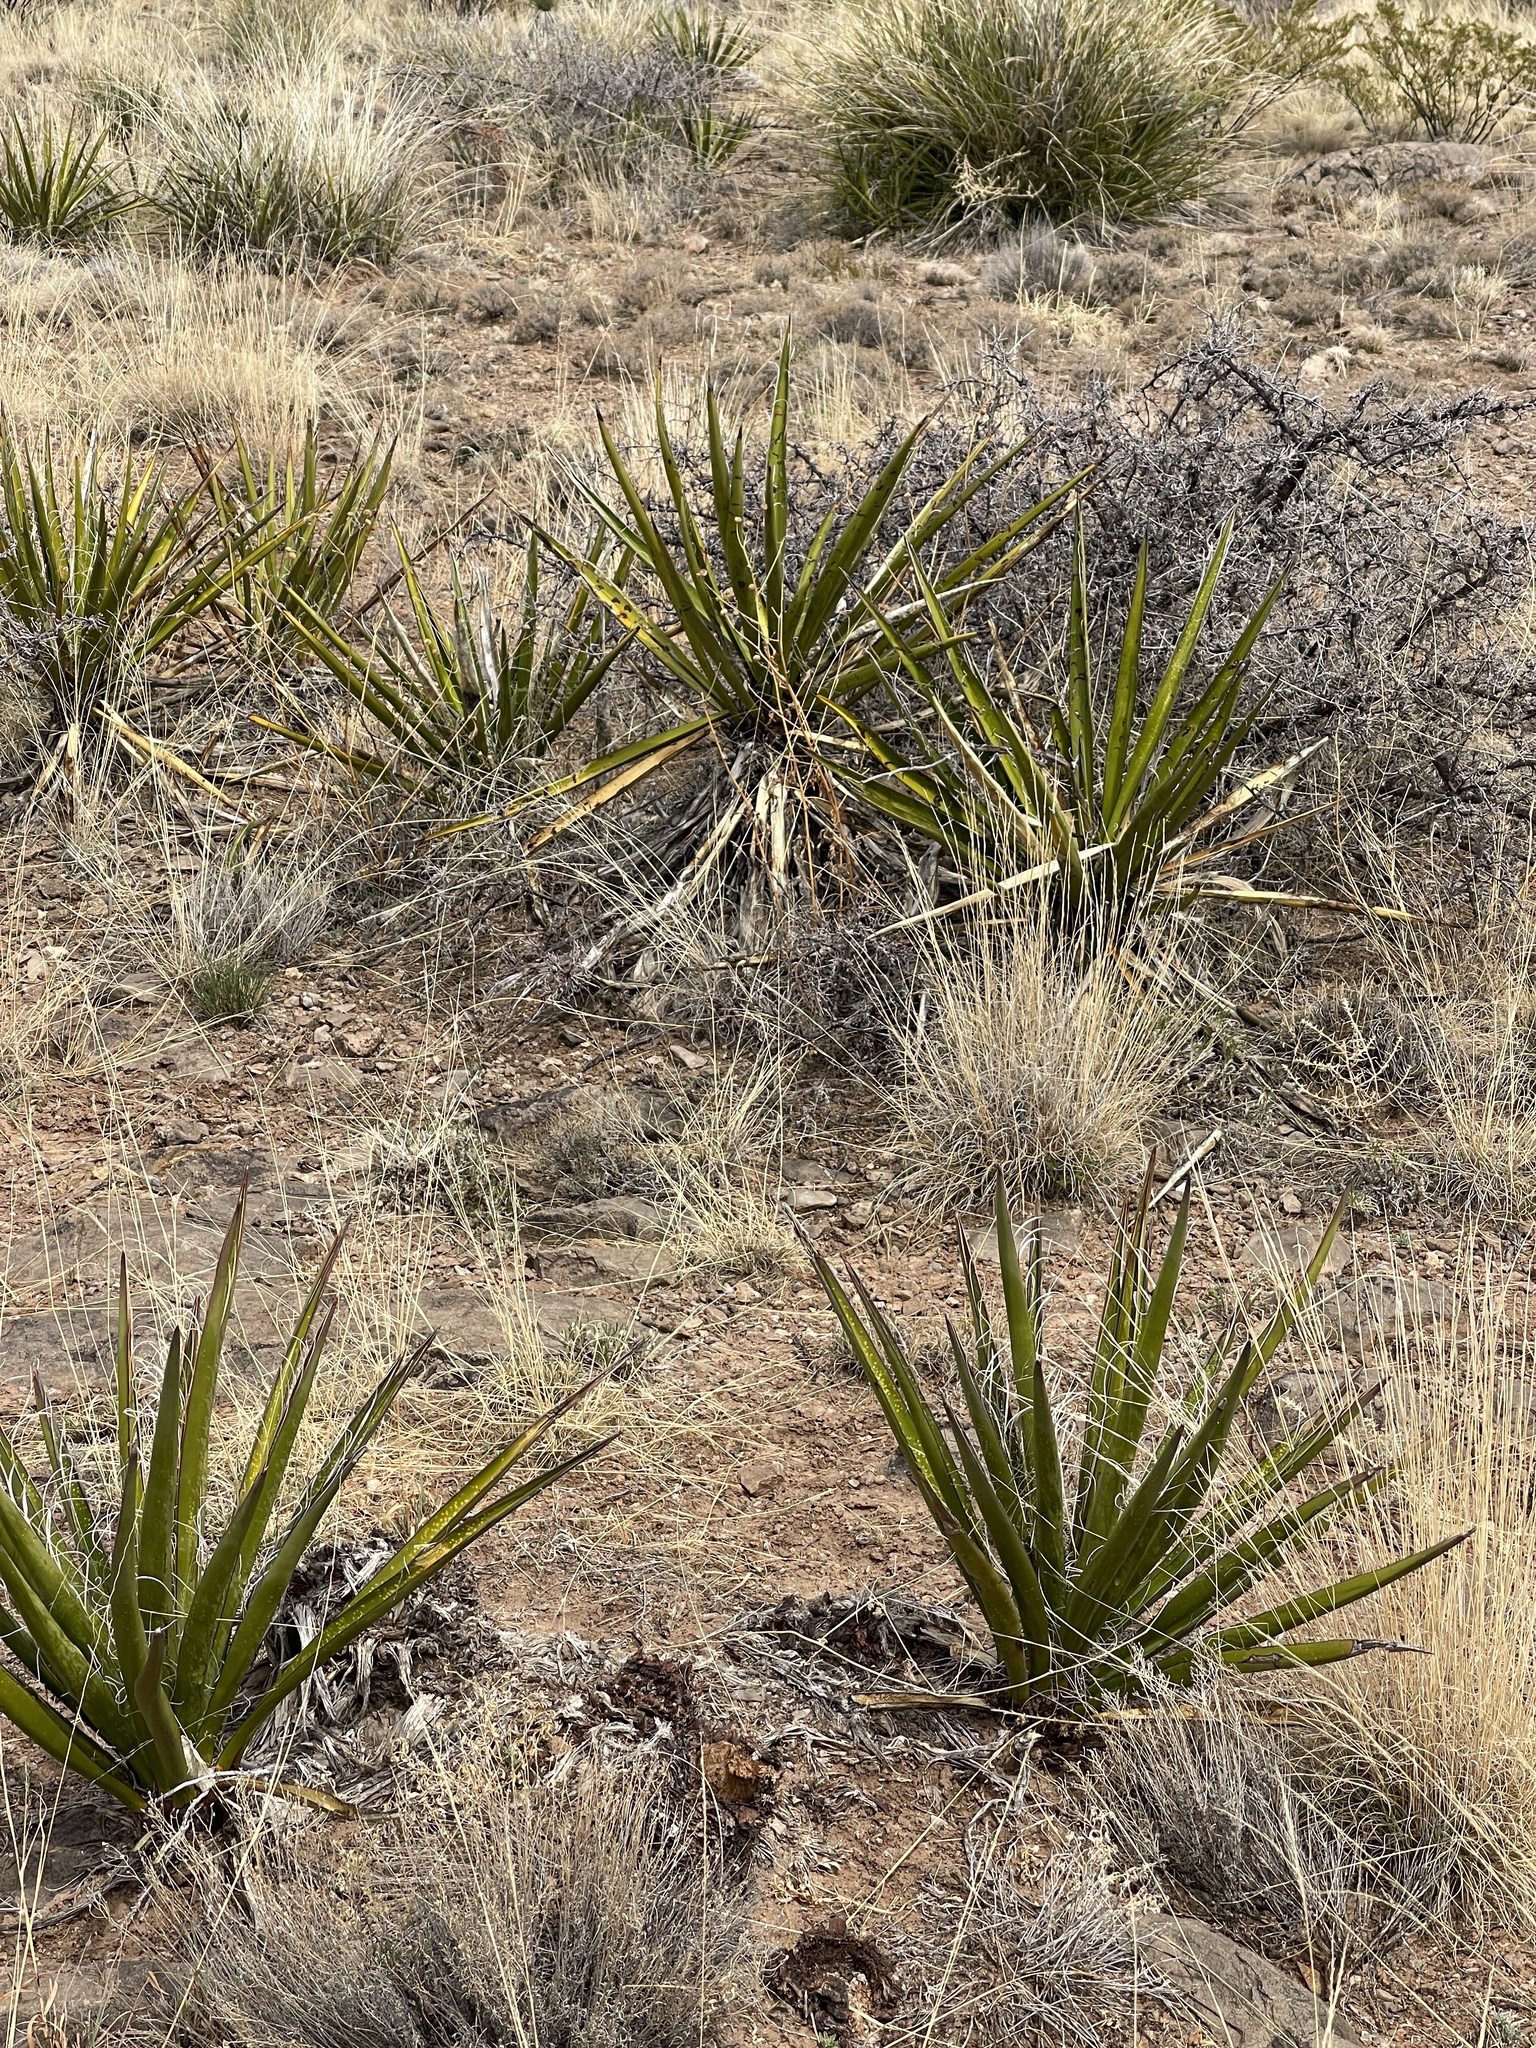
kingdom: Plantae
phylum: Tracheophyta
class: Liliopsida
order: Asparagales
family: Asparagaceae
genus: Yucca
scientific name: Yucca baccata
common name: Banana yucca
